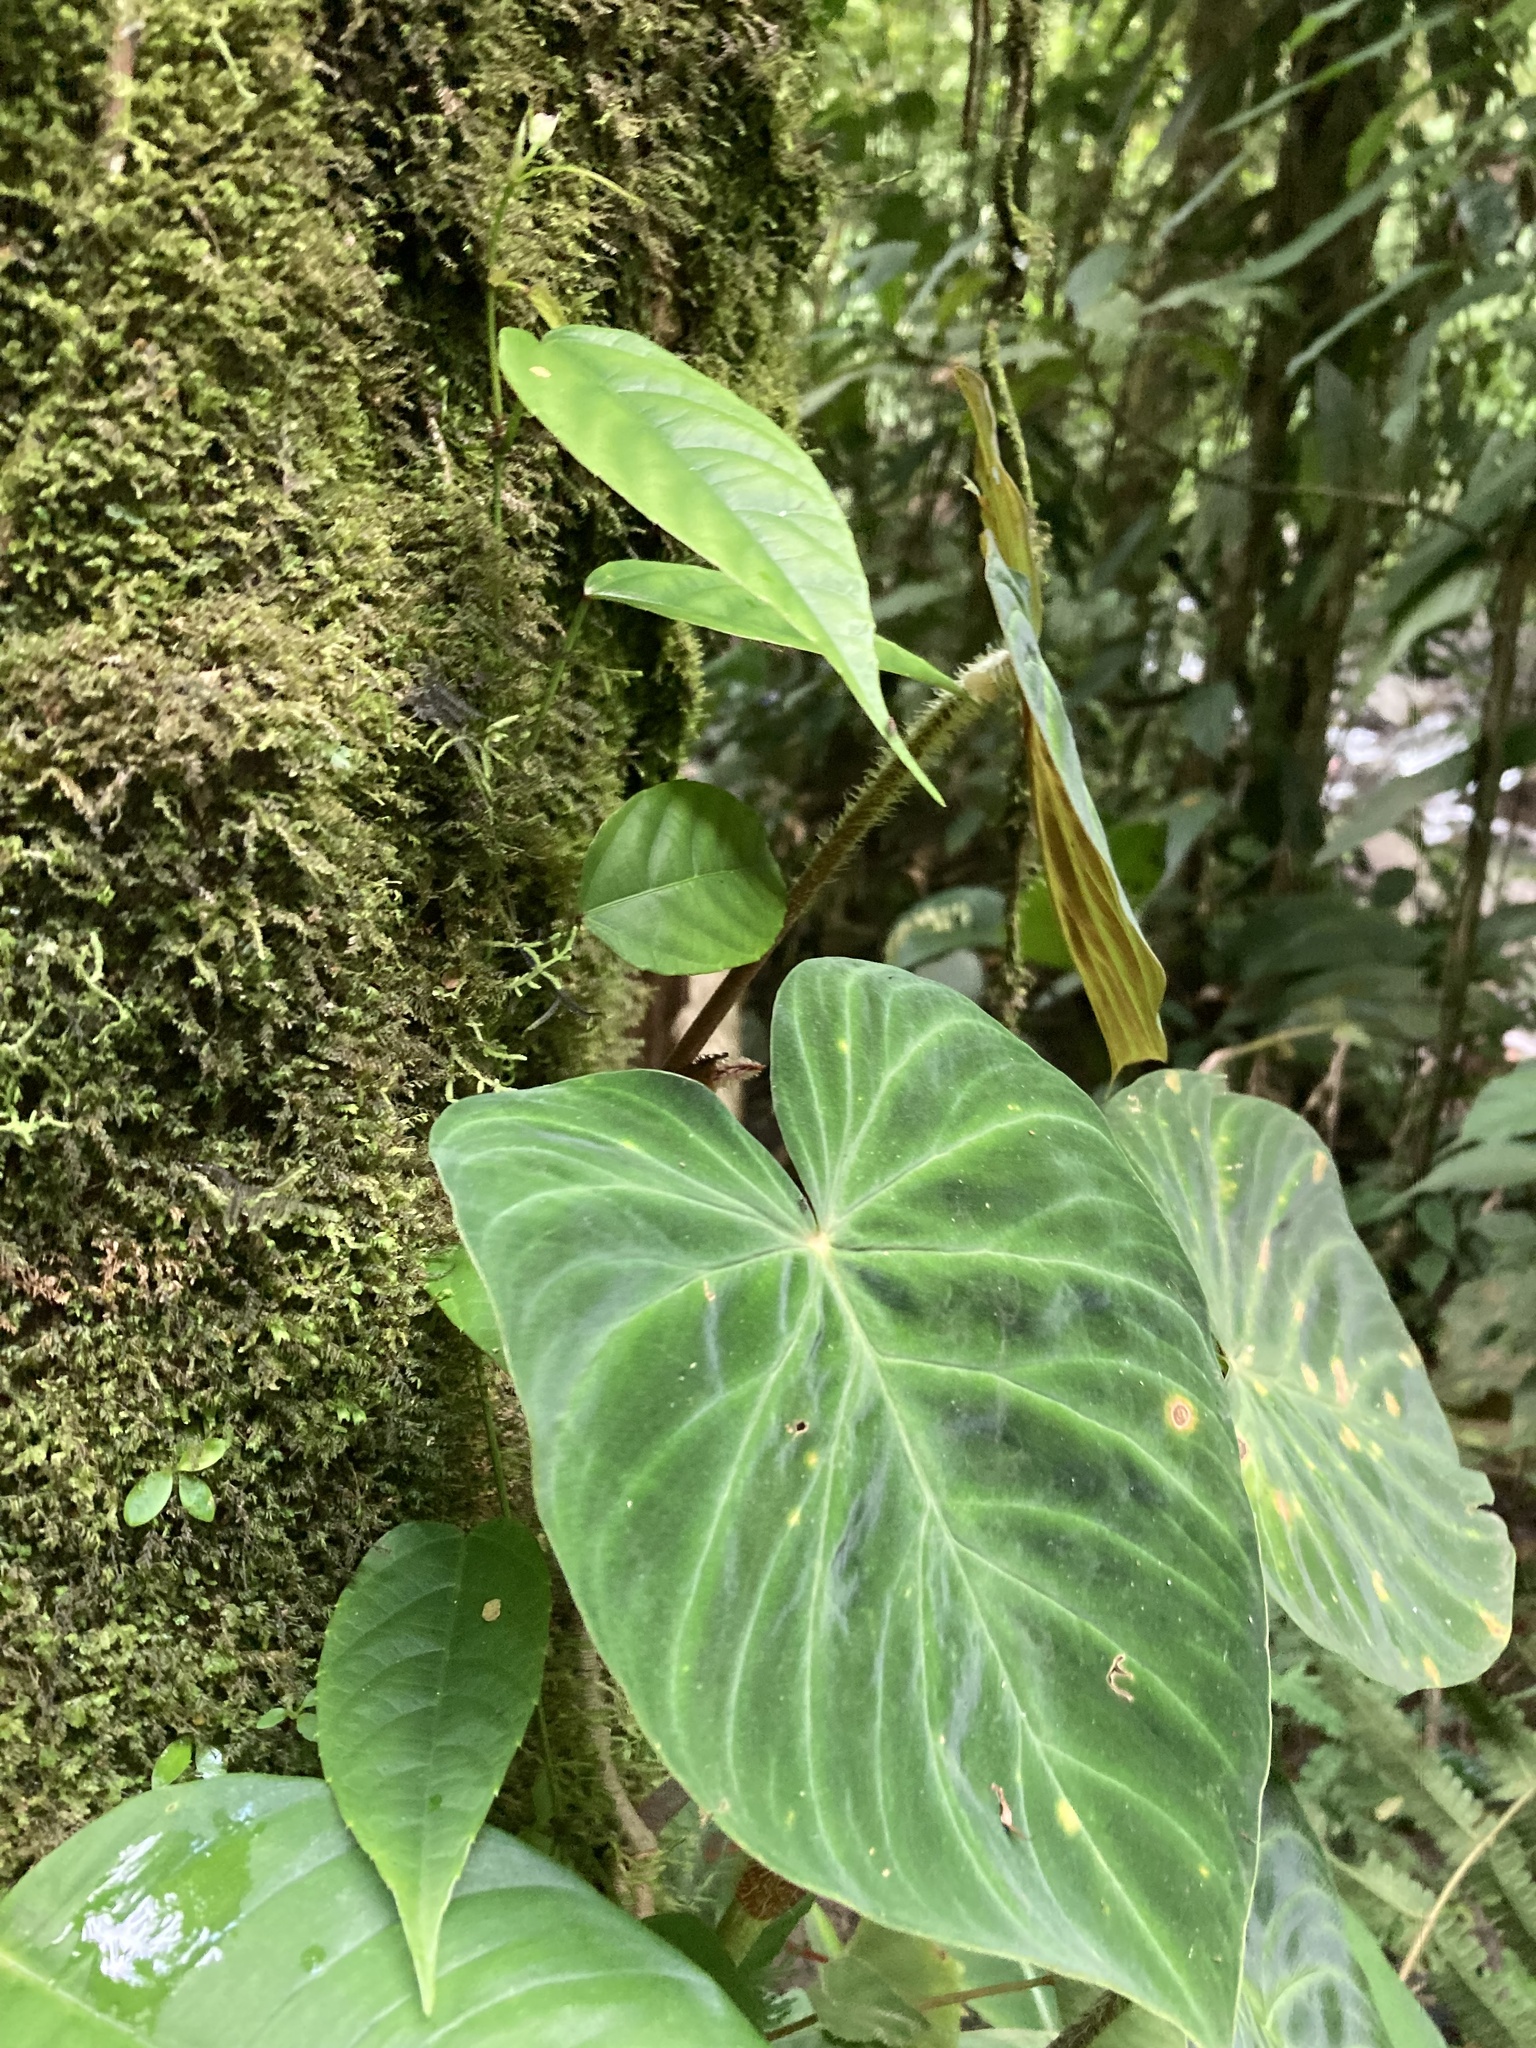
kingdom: Plantae
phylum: Tracheophyta
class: Liliopsida
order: Alismatales
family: Araceae
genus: Philodendron
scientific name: Philodendron verrucosum
